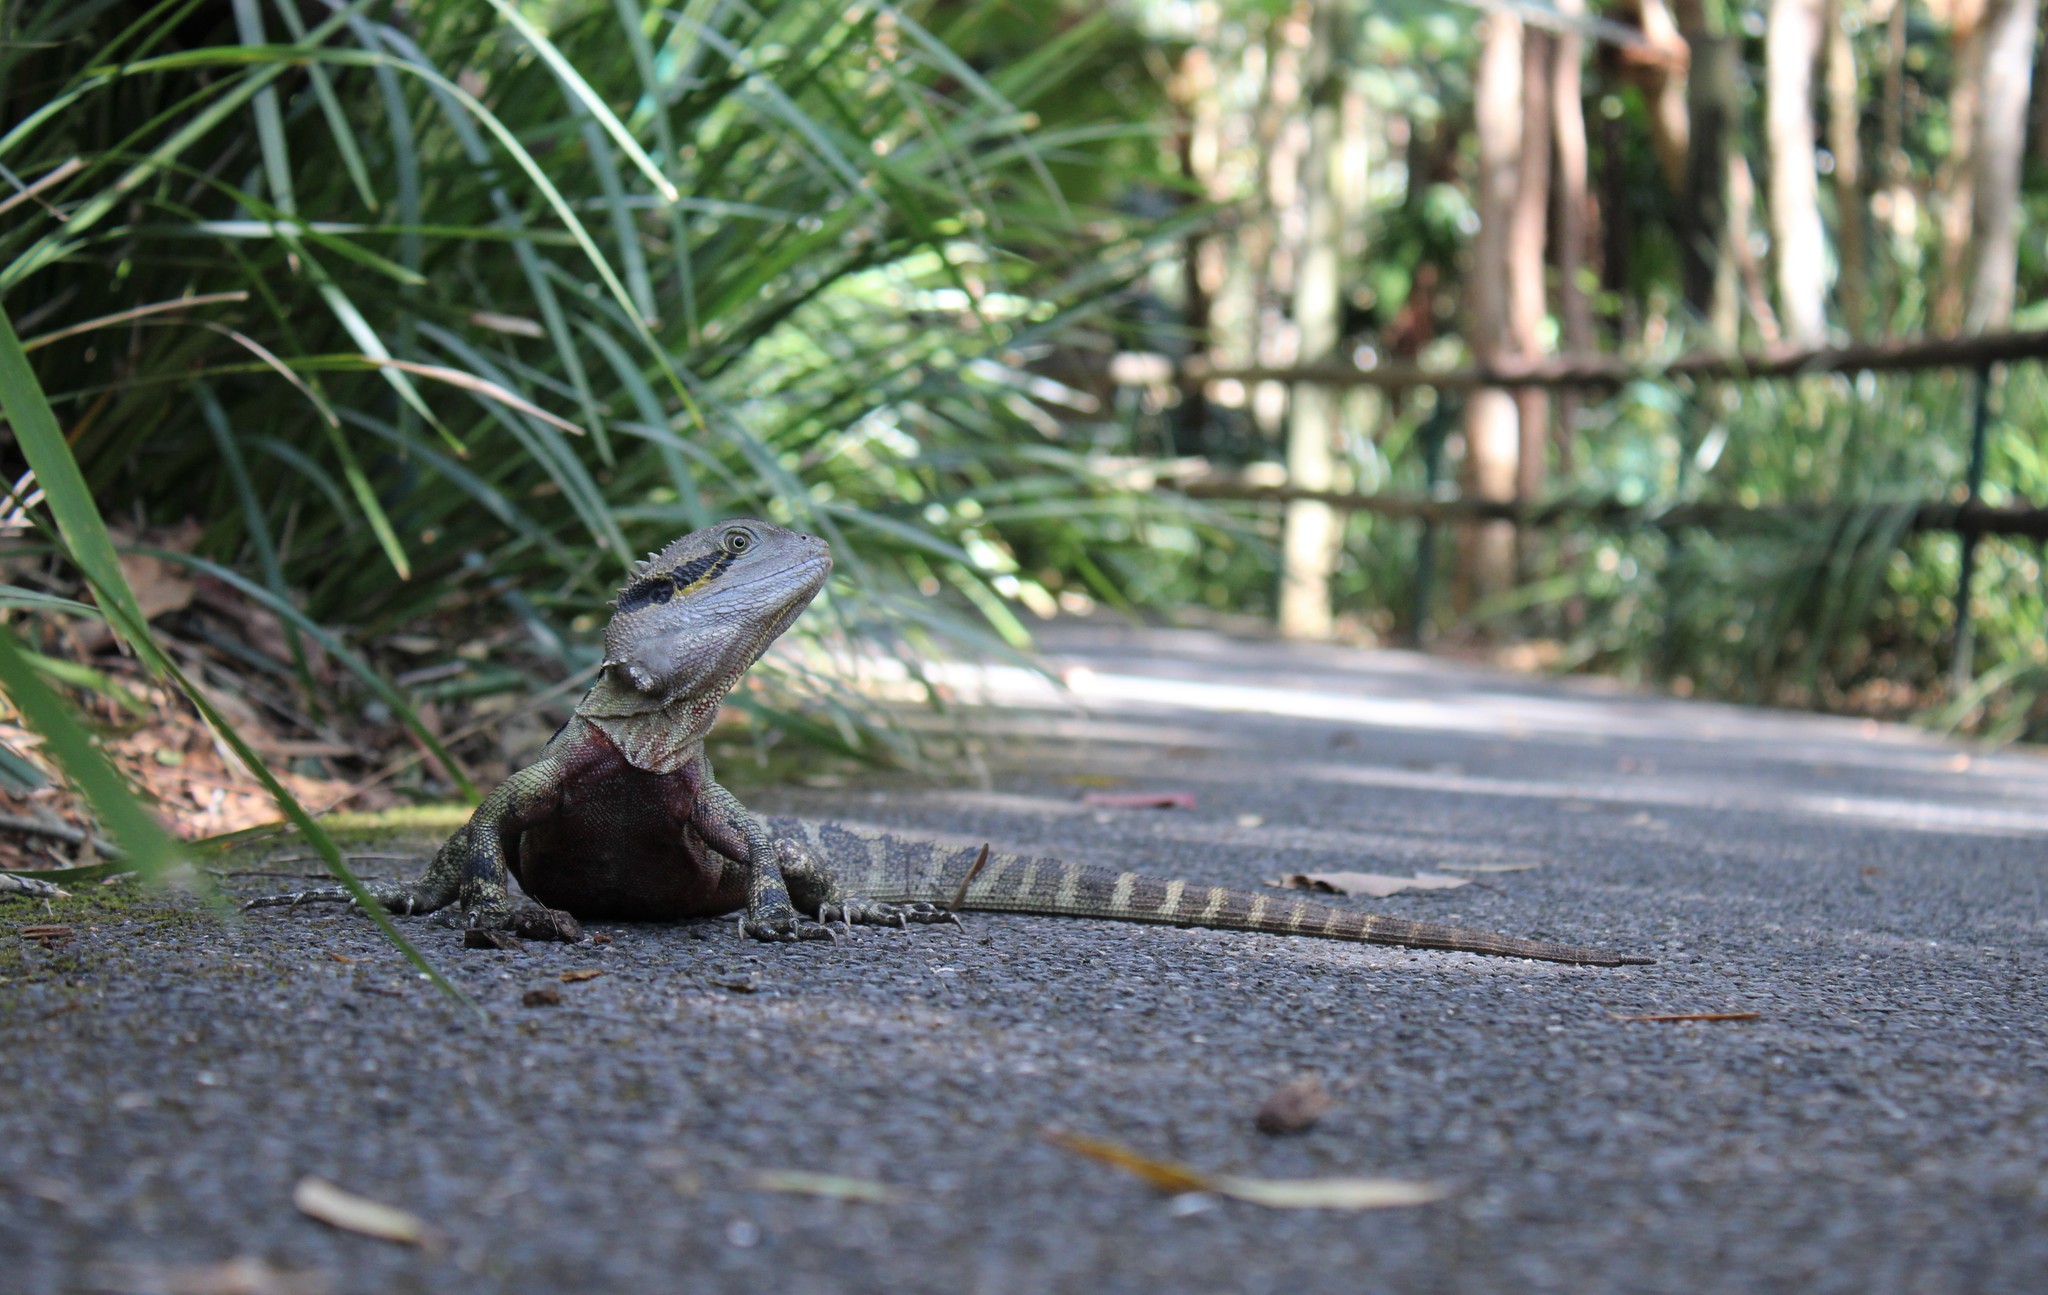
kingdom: Animalia
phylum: Chordata
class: Squamata
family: Agamidae
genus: Intellagama
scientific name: Intellagama lesueurii
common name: Eastern water dragon
